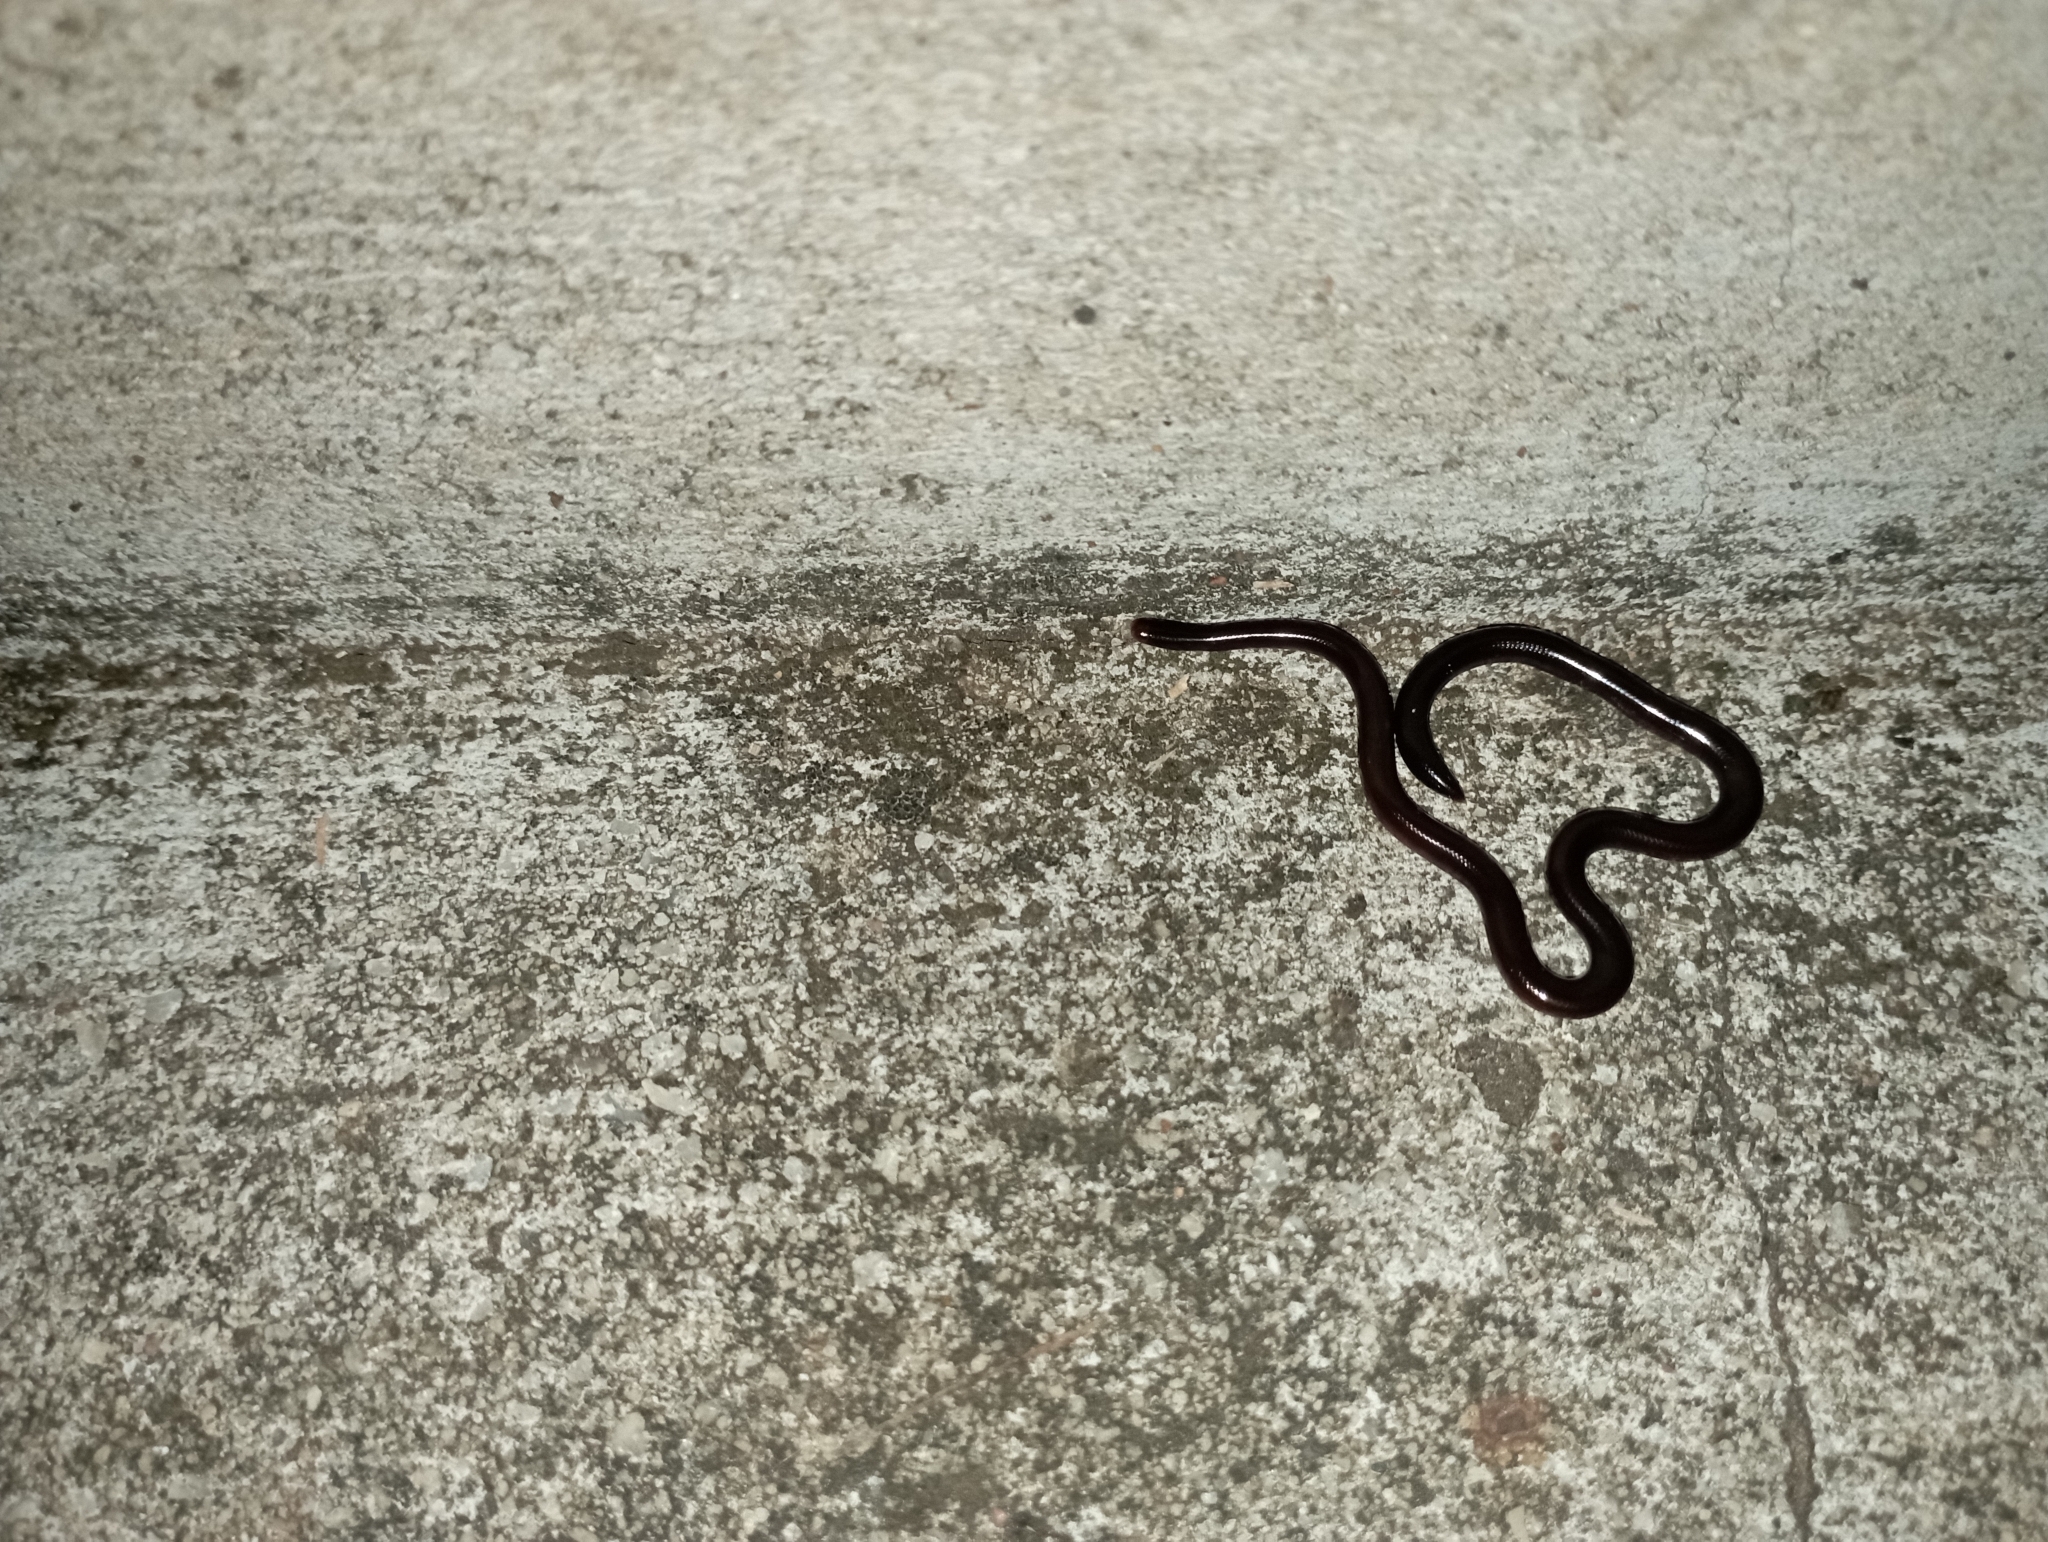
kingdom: Animalia
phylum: Chordata
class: Squamata
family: Typhlopidae
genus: Indotyphlops
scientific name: Indotyphlops braminus
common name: Brahminy blindsnake
